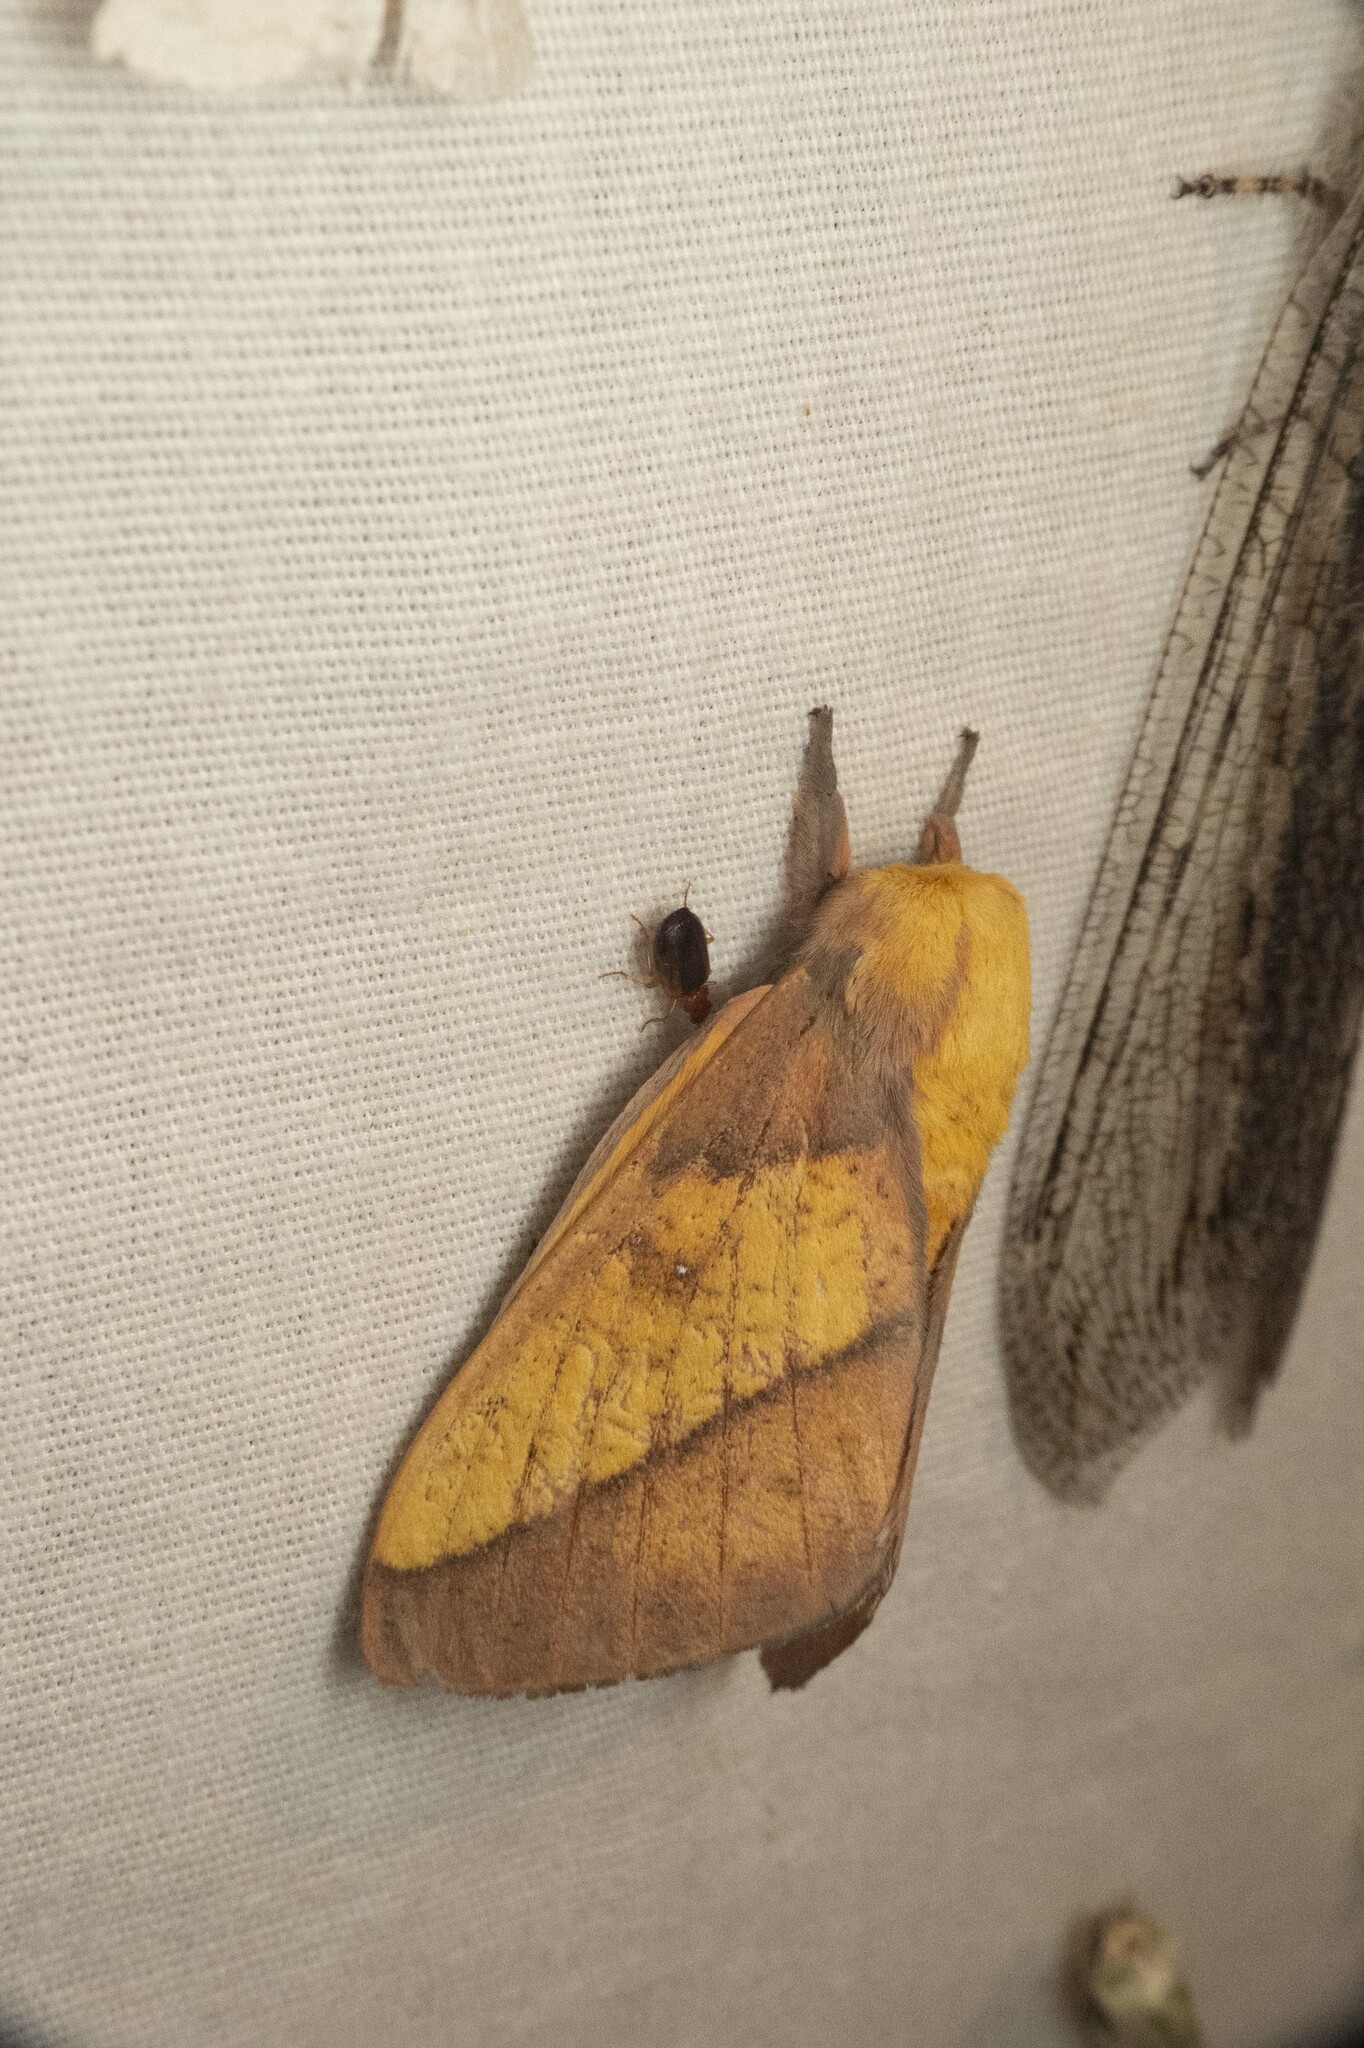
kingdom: Animalia
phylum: Arthropoda
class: Insecta
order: Lepidoptera
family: Saturniidae
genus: Syssphinx
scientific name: Syssphinx montana
